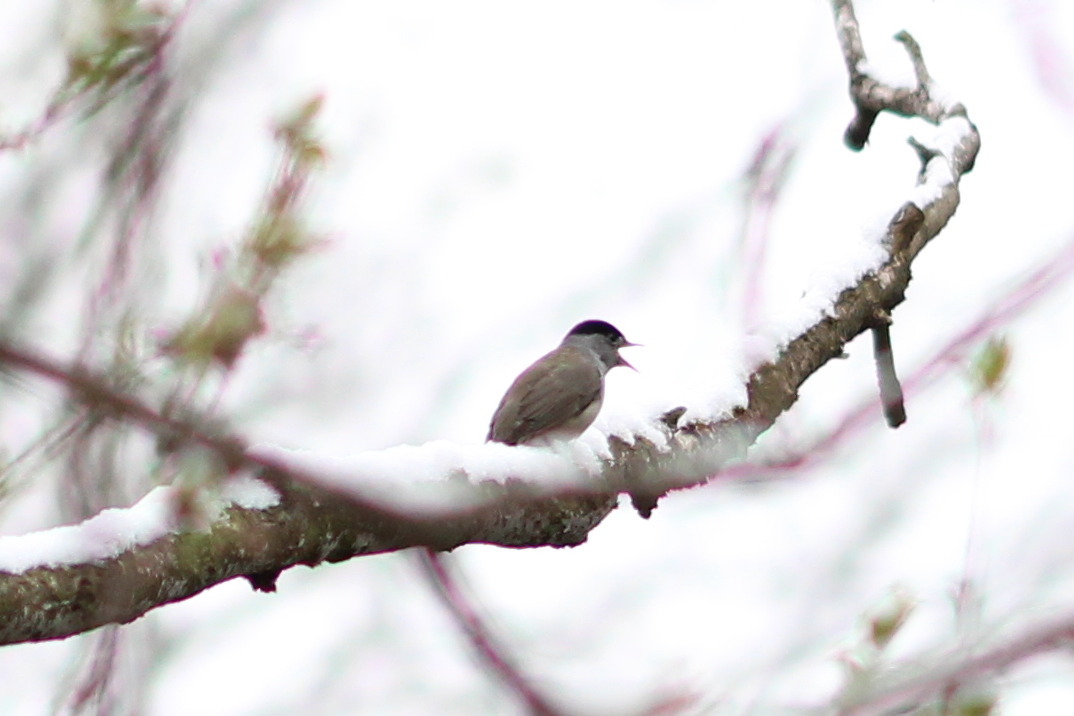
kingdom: Animalia
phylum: Chordata
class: Aves
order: Passeriformes
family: Sylviidae
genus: Sylvia
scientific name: Sylvia atricapilla
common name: Eurasian blackcap
